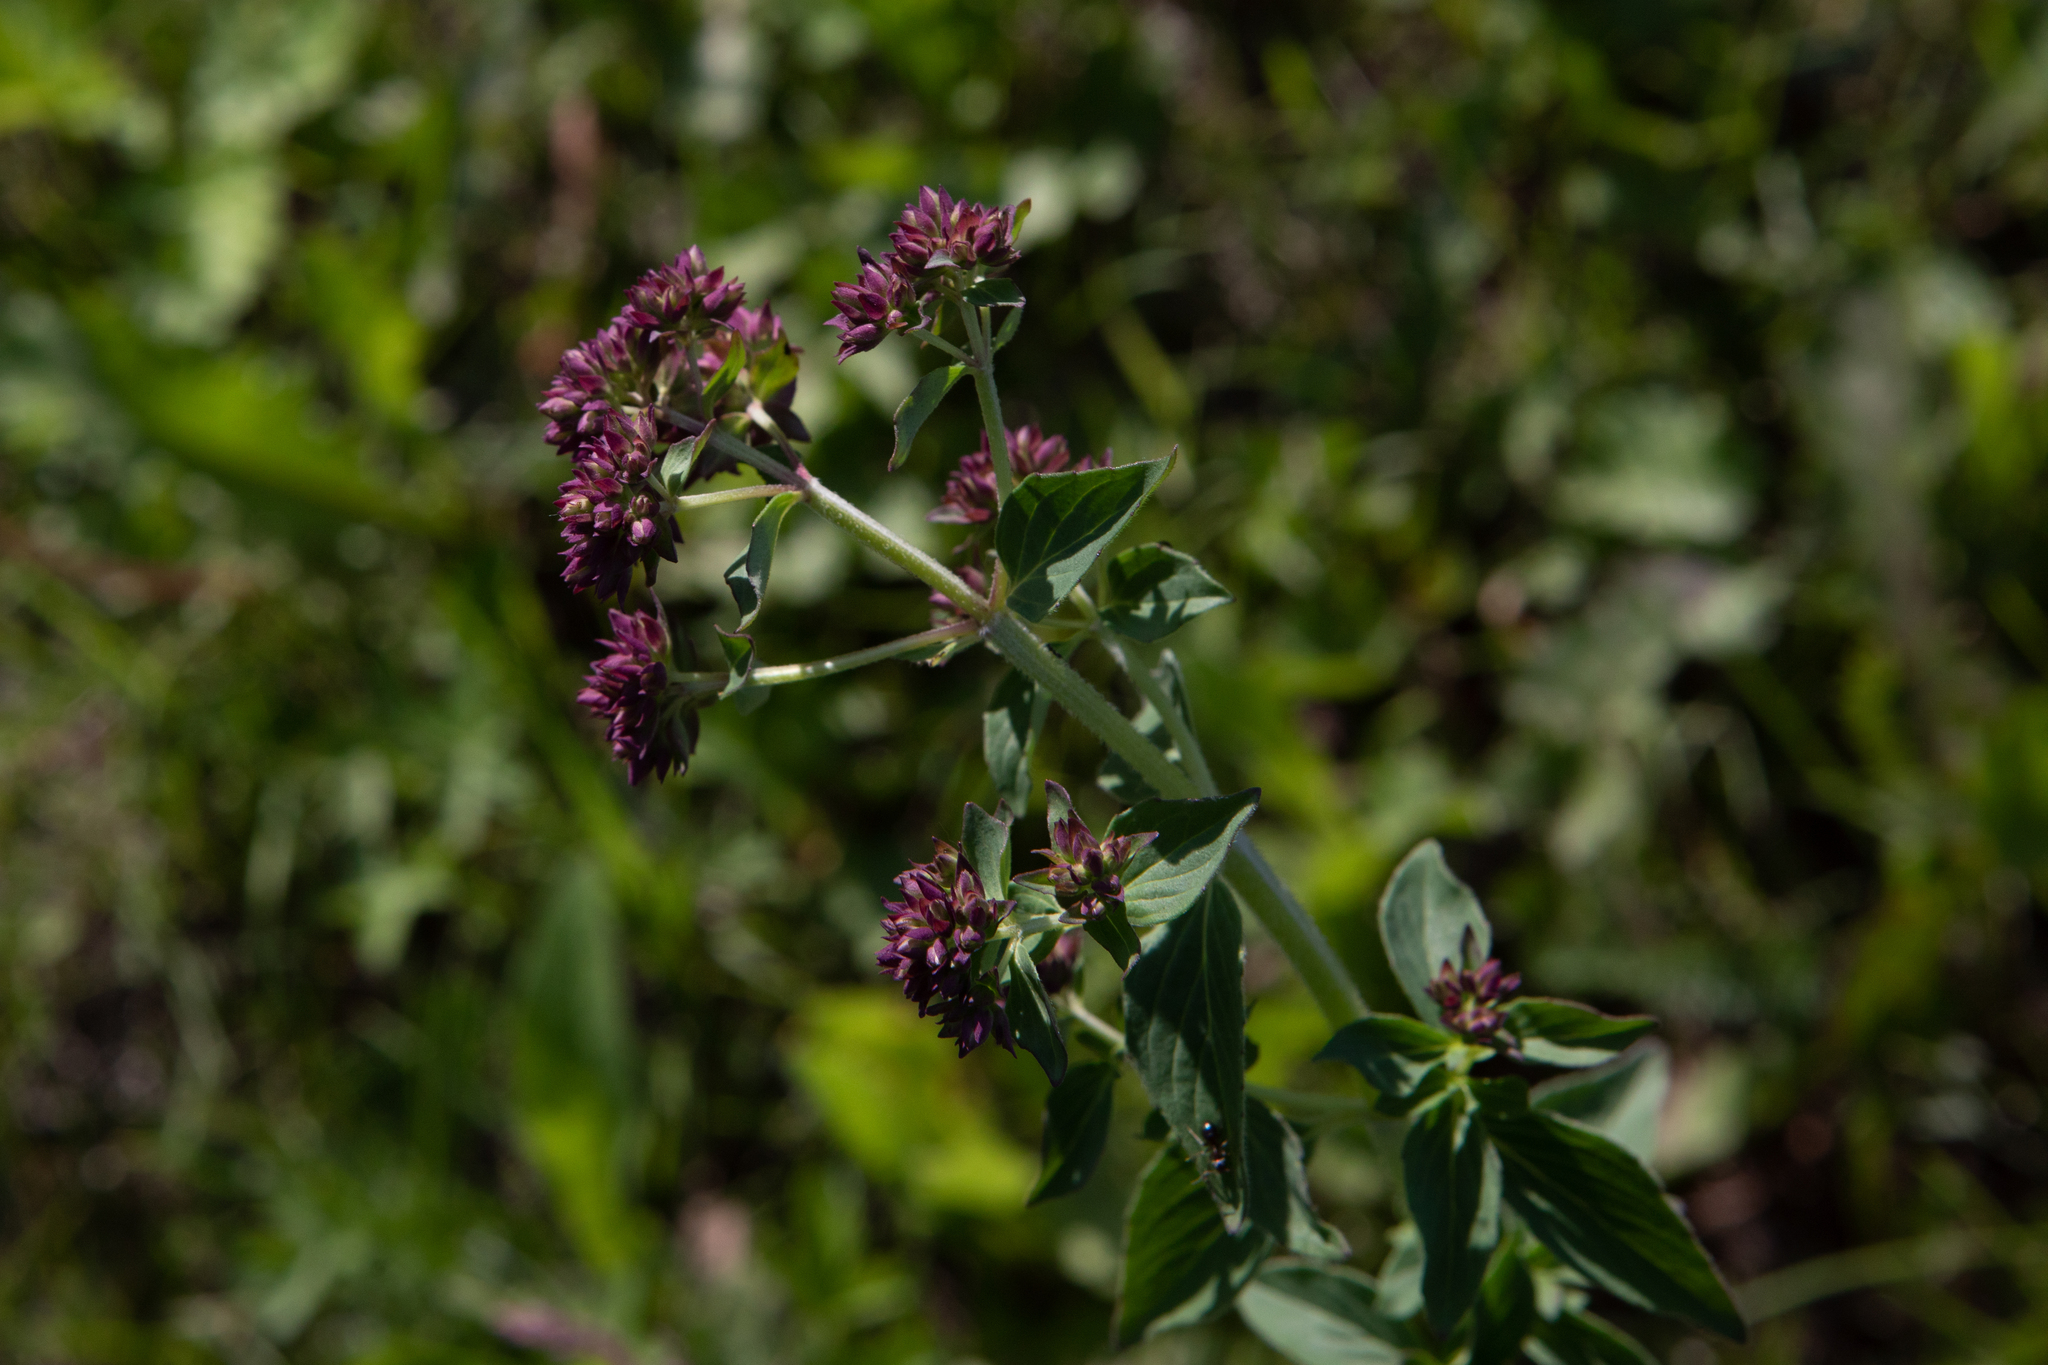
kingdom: Plantae
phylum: Tracheophyta
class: Magnoliopsida
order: Lamiales
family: Lamiaceae
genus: Origanum
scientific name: Origanum vulgare
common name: Wild marjoram
